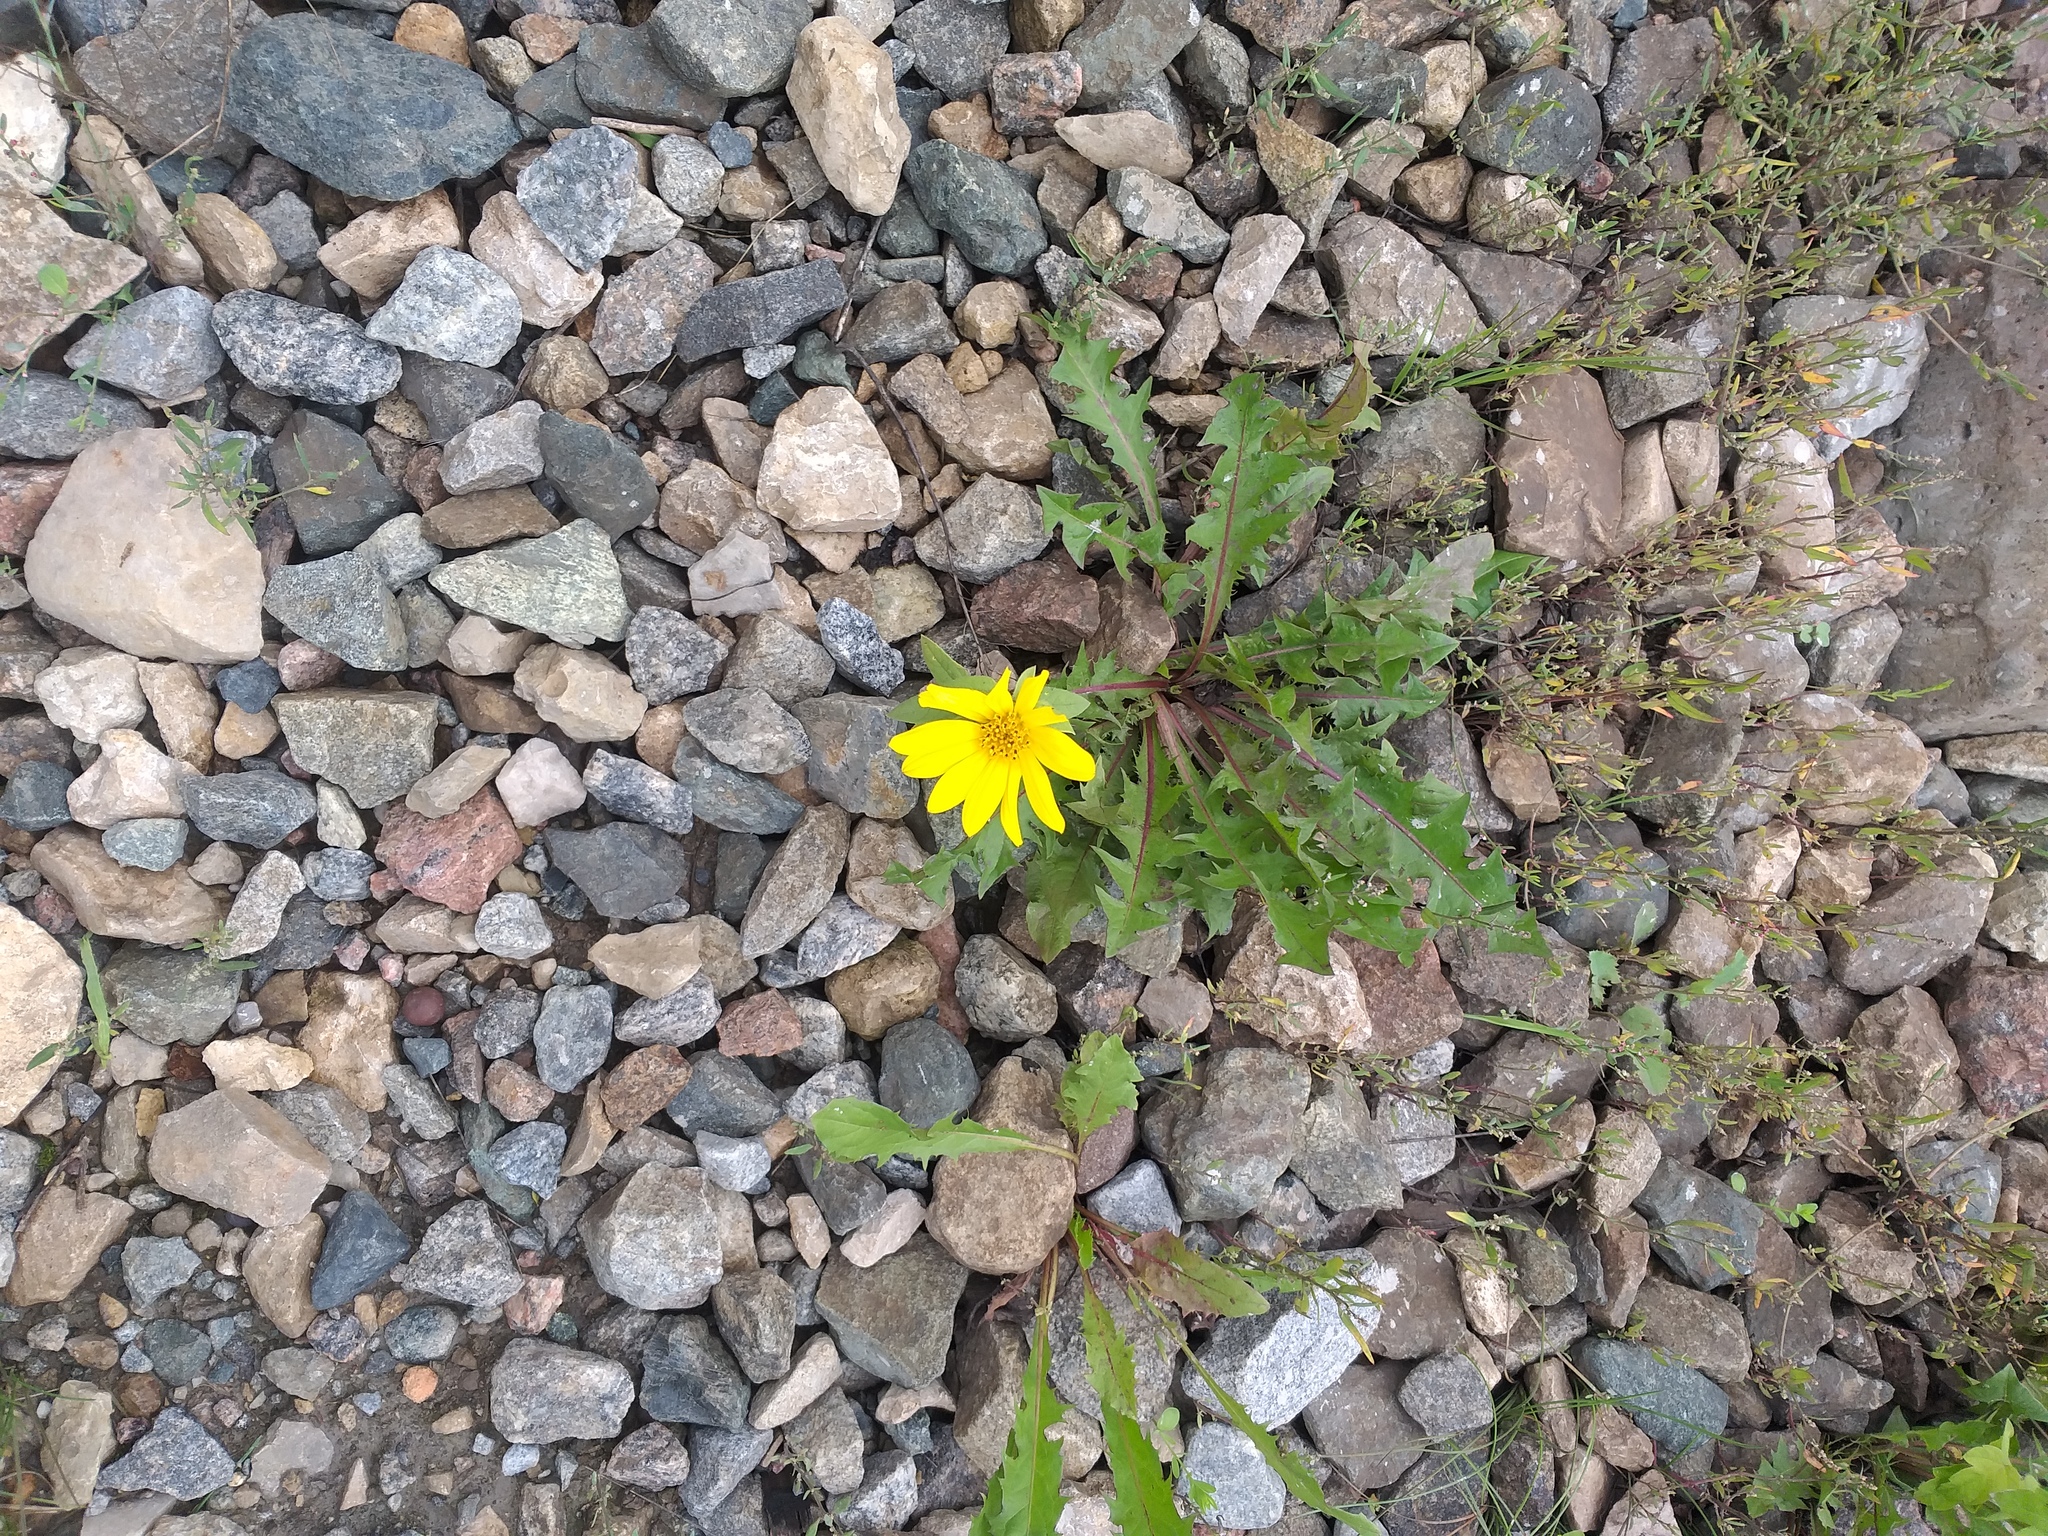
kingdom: Plantae
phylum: Tracheophyta
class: Magnoliopsida
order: Asterales
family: Asteraceae
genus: Helianthus
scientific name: Helianthus annuus
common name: Sunflower
